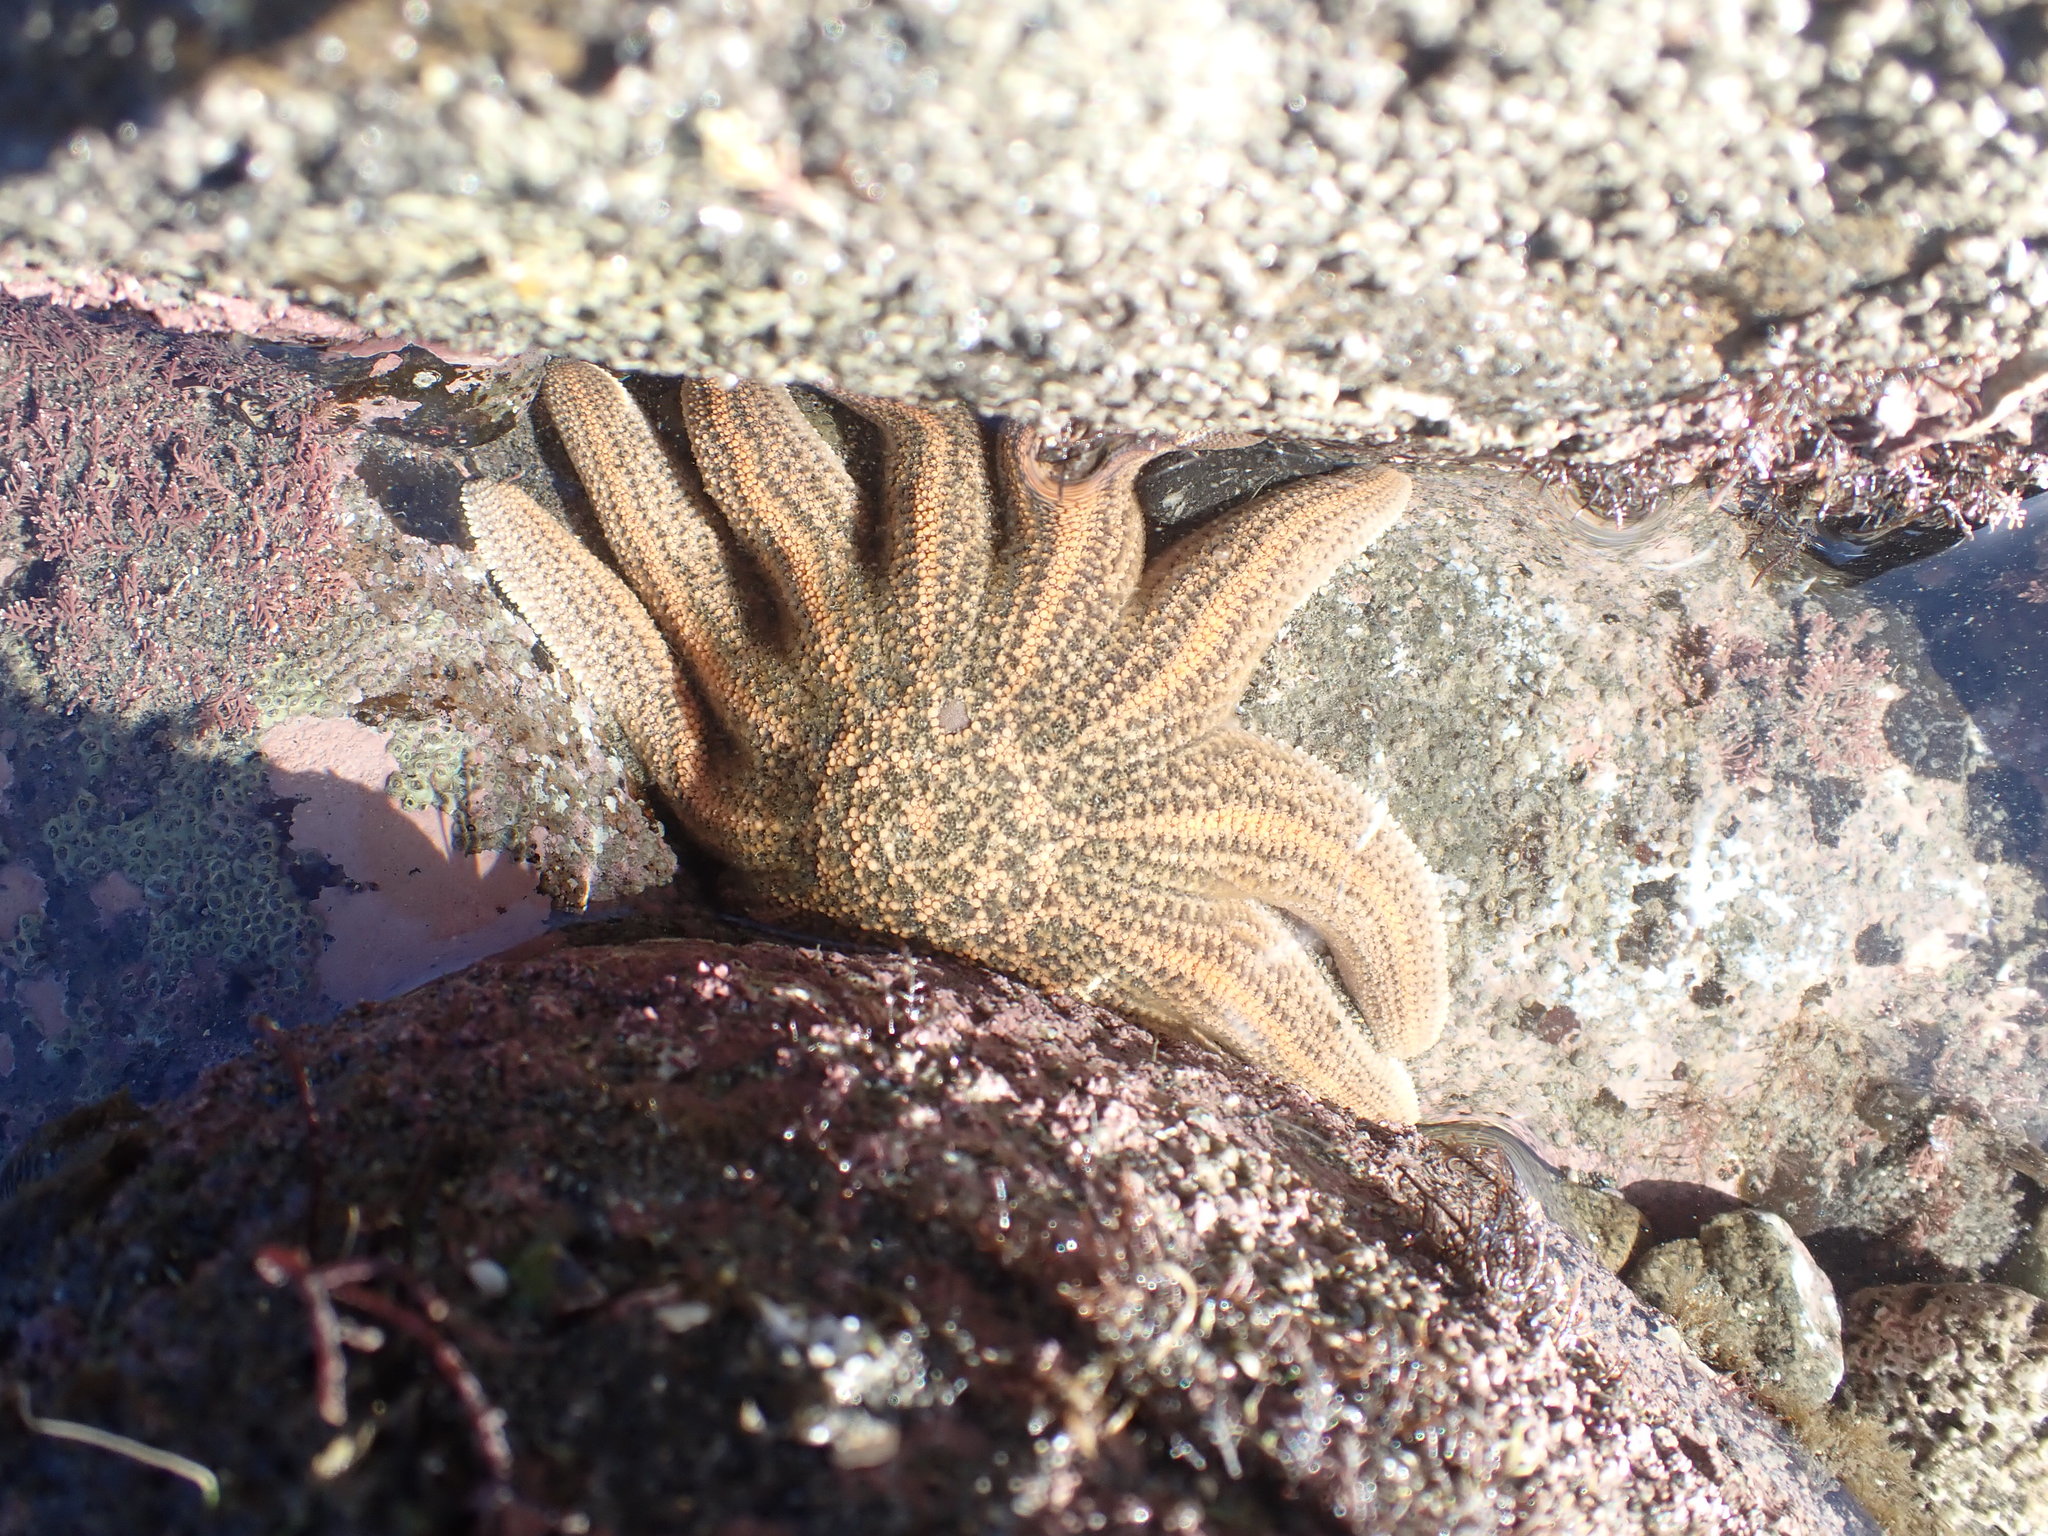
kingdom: Animalia
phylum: Echinodermata
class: Asteroidea
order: Forcipulatida
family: Stichasteridae
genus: Stichaster
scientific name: Stichaster australis
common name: Reef starfish
